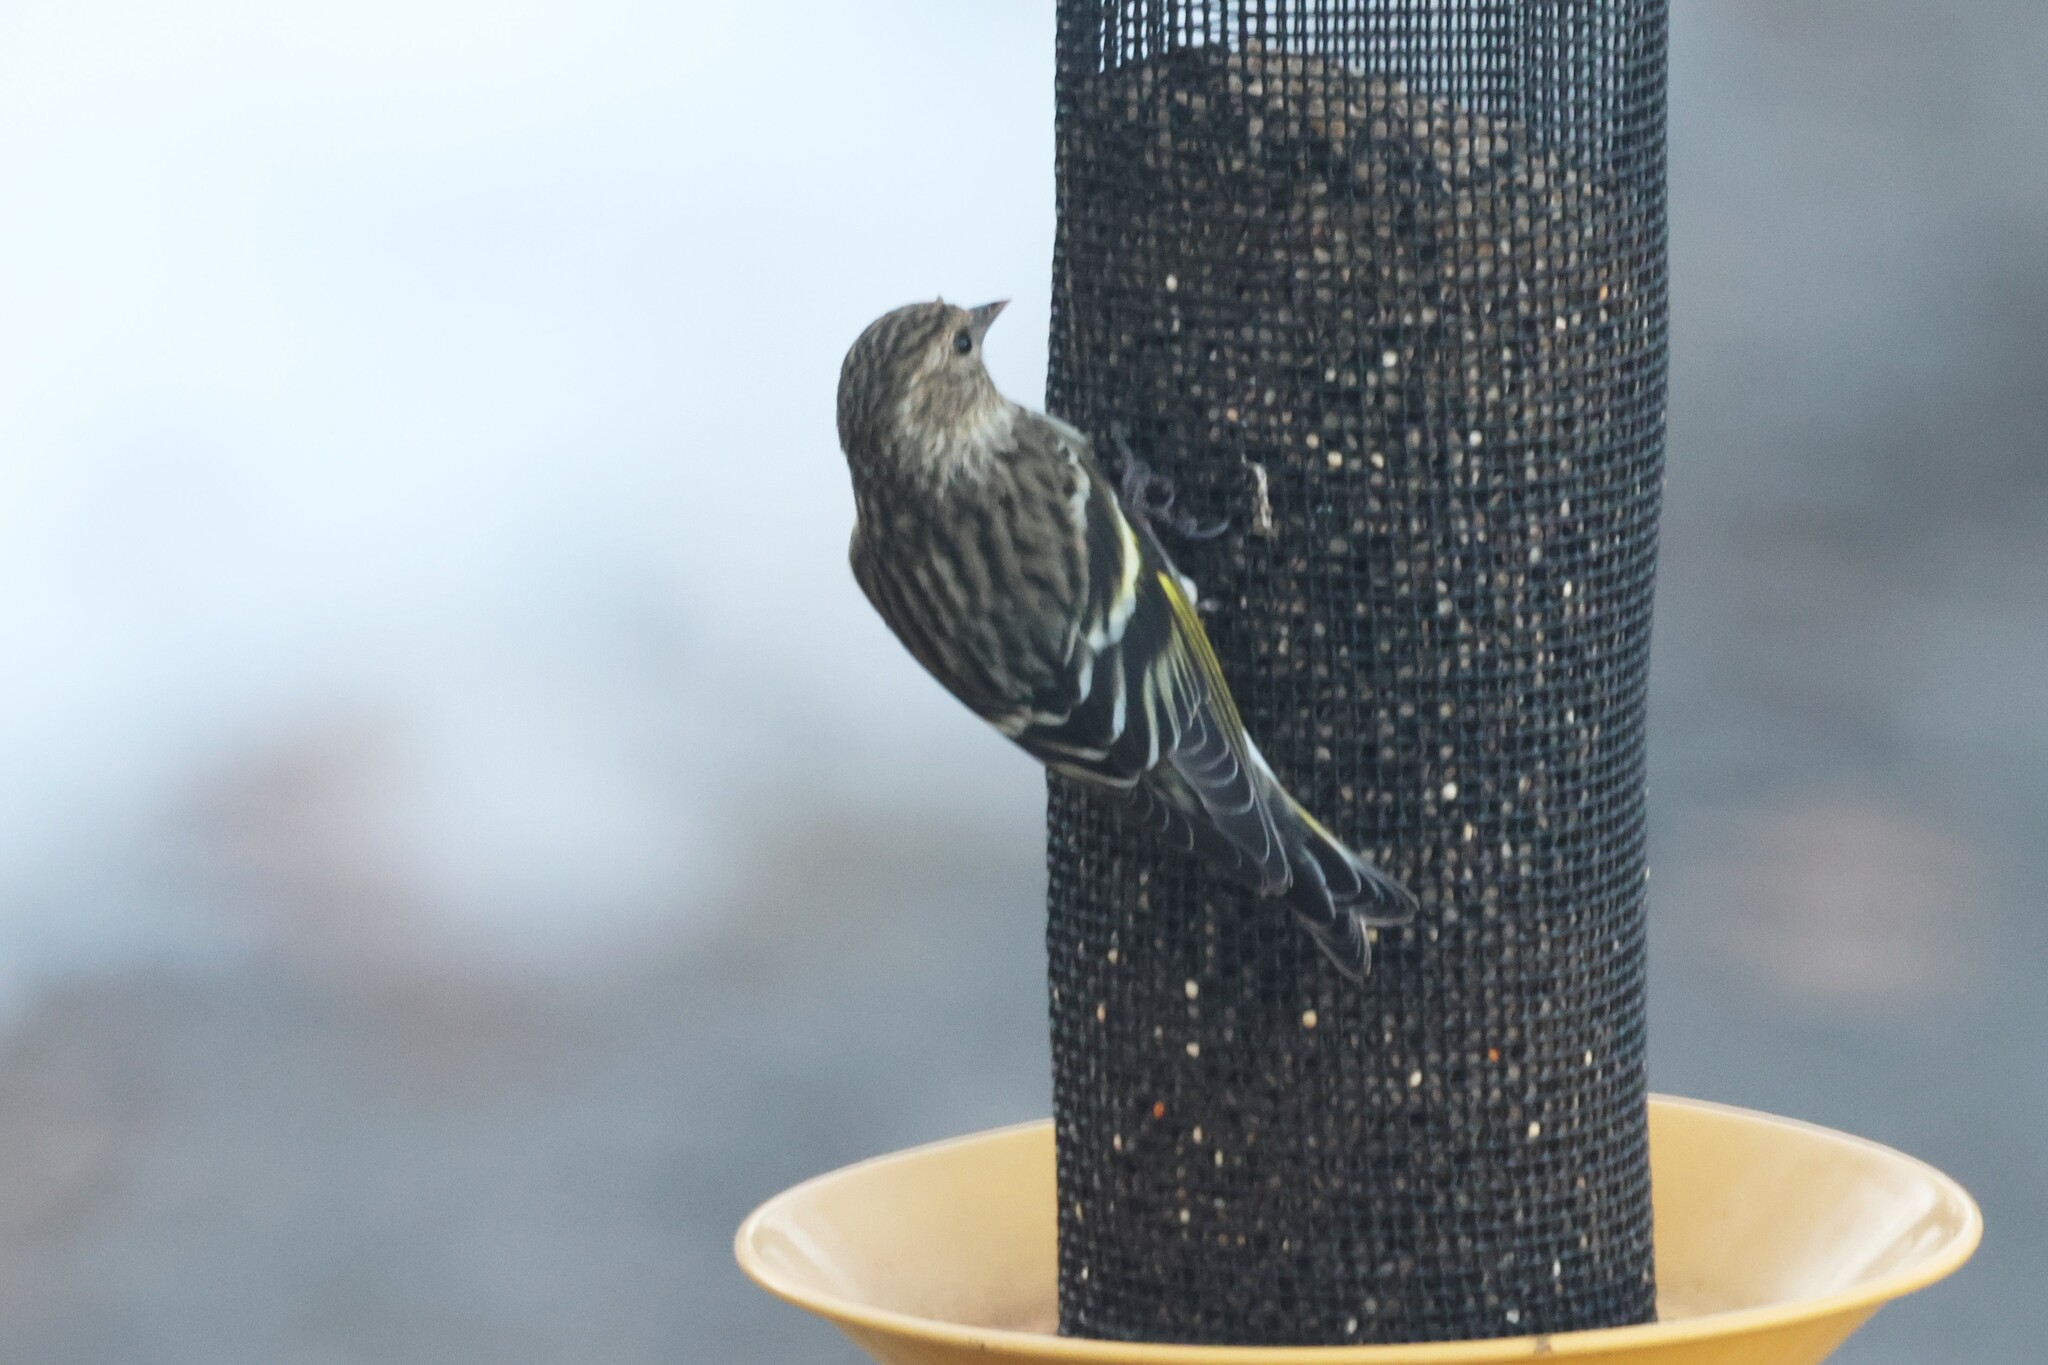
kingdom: Animalia
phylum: Chordata
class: Aves
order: Passeriformes
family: Fringillidae
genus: Spinus
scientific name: Spinus pinus
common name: Pine siskin
